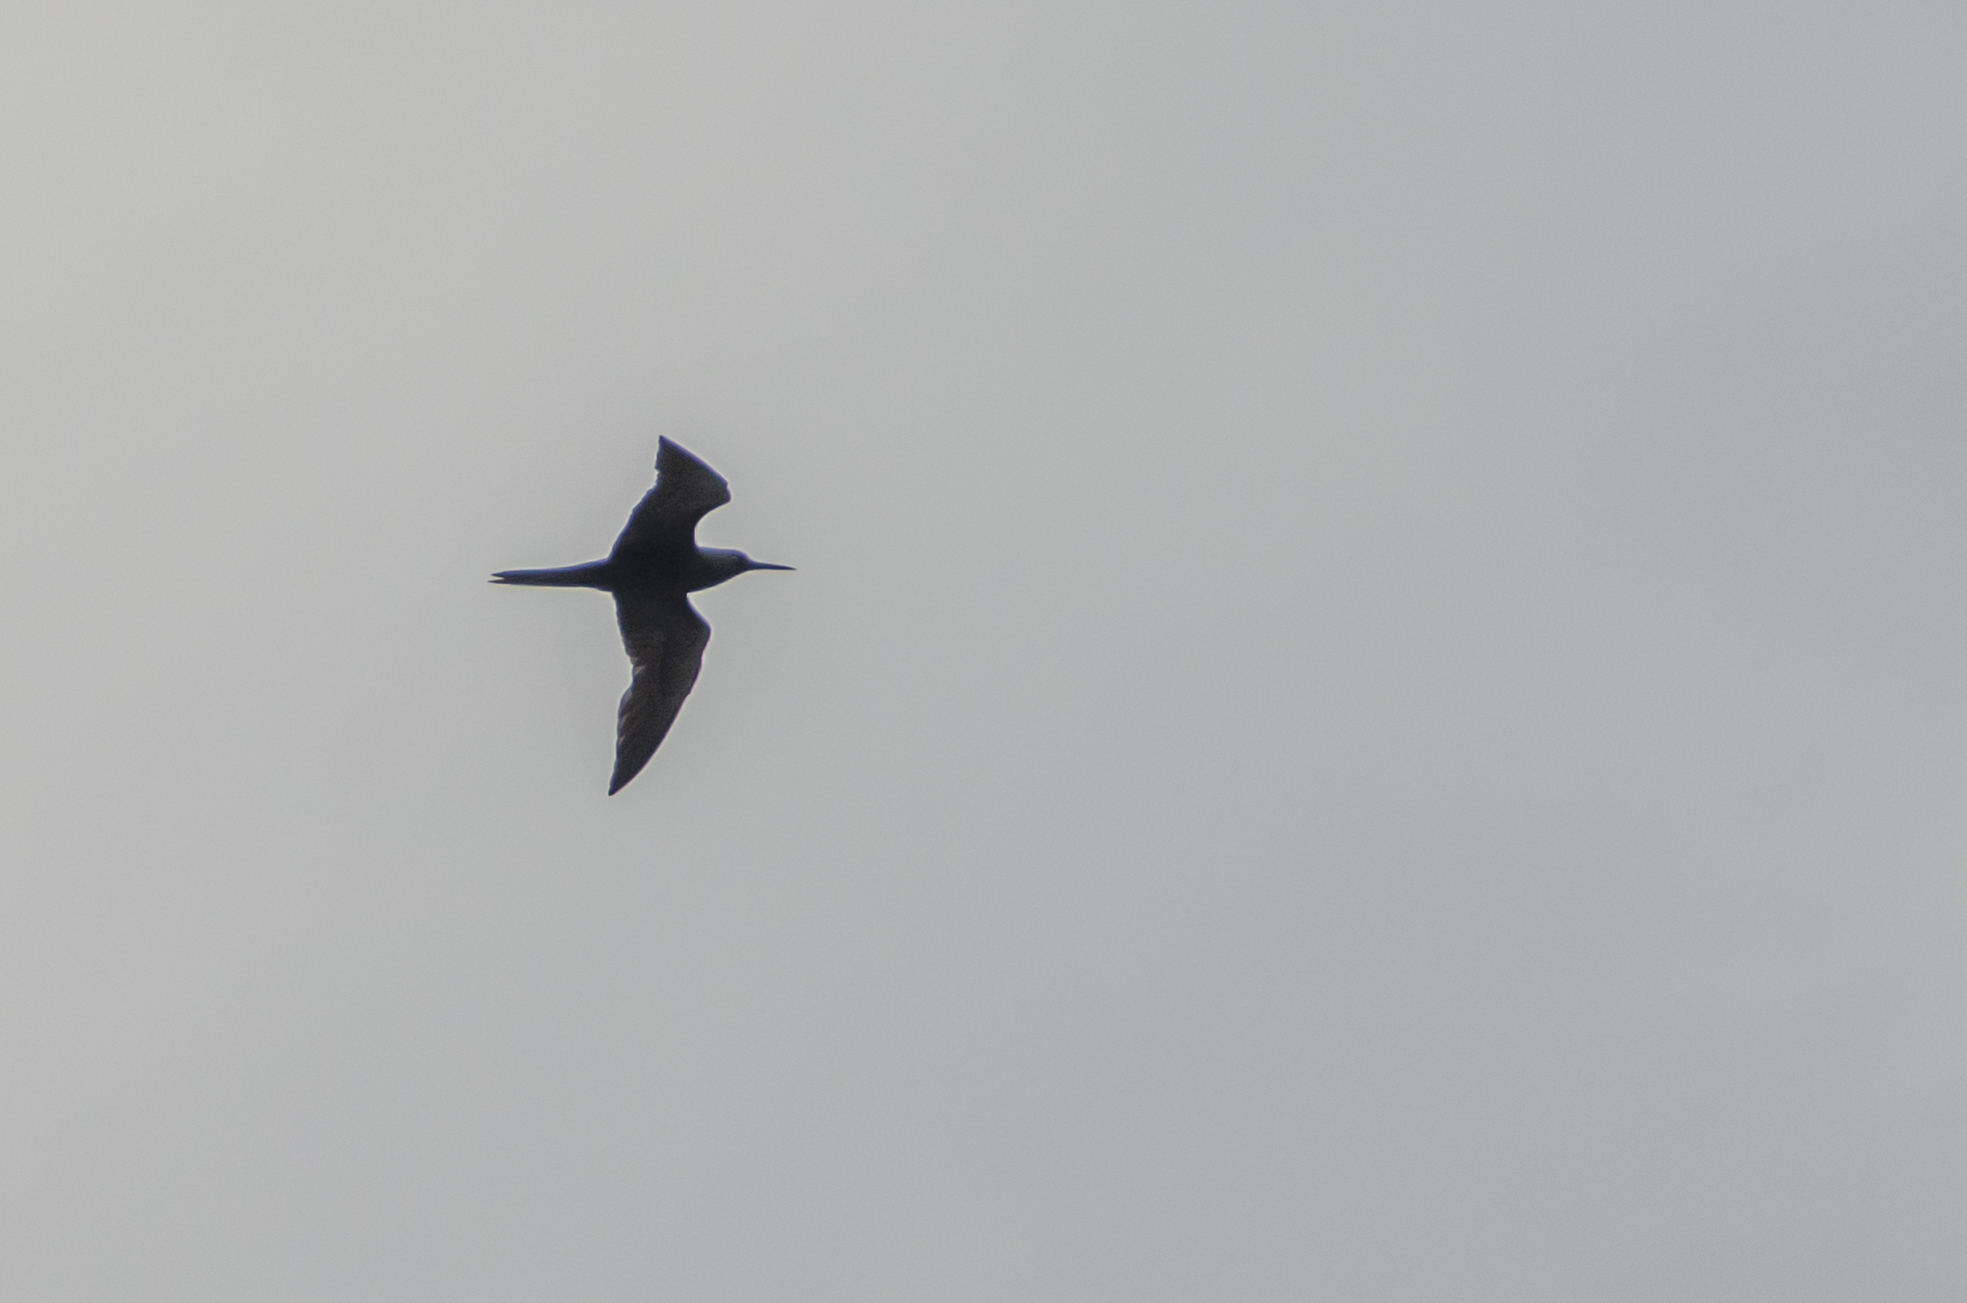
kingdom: Animalia
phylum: Chordata
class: Aves
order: Charadriiformes
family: Laridae
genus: Anous
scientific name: Anous minutus
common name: Black noddy
